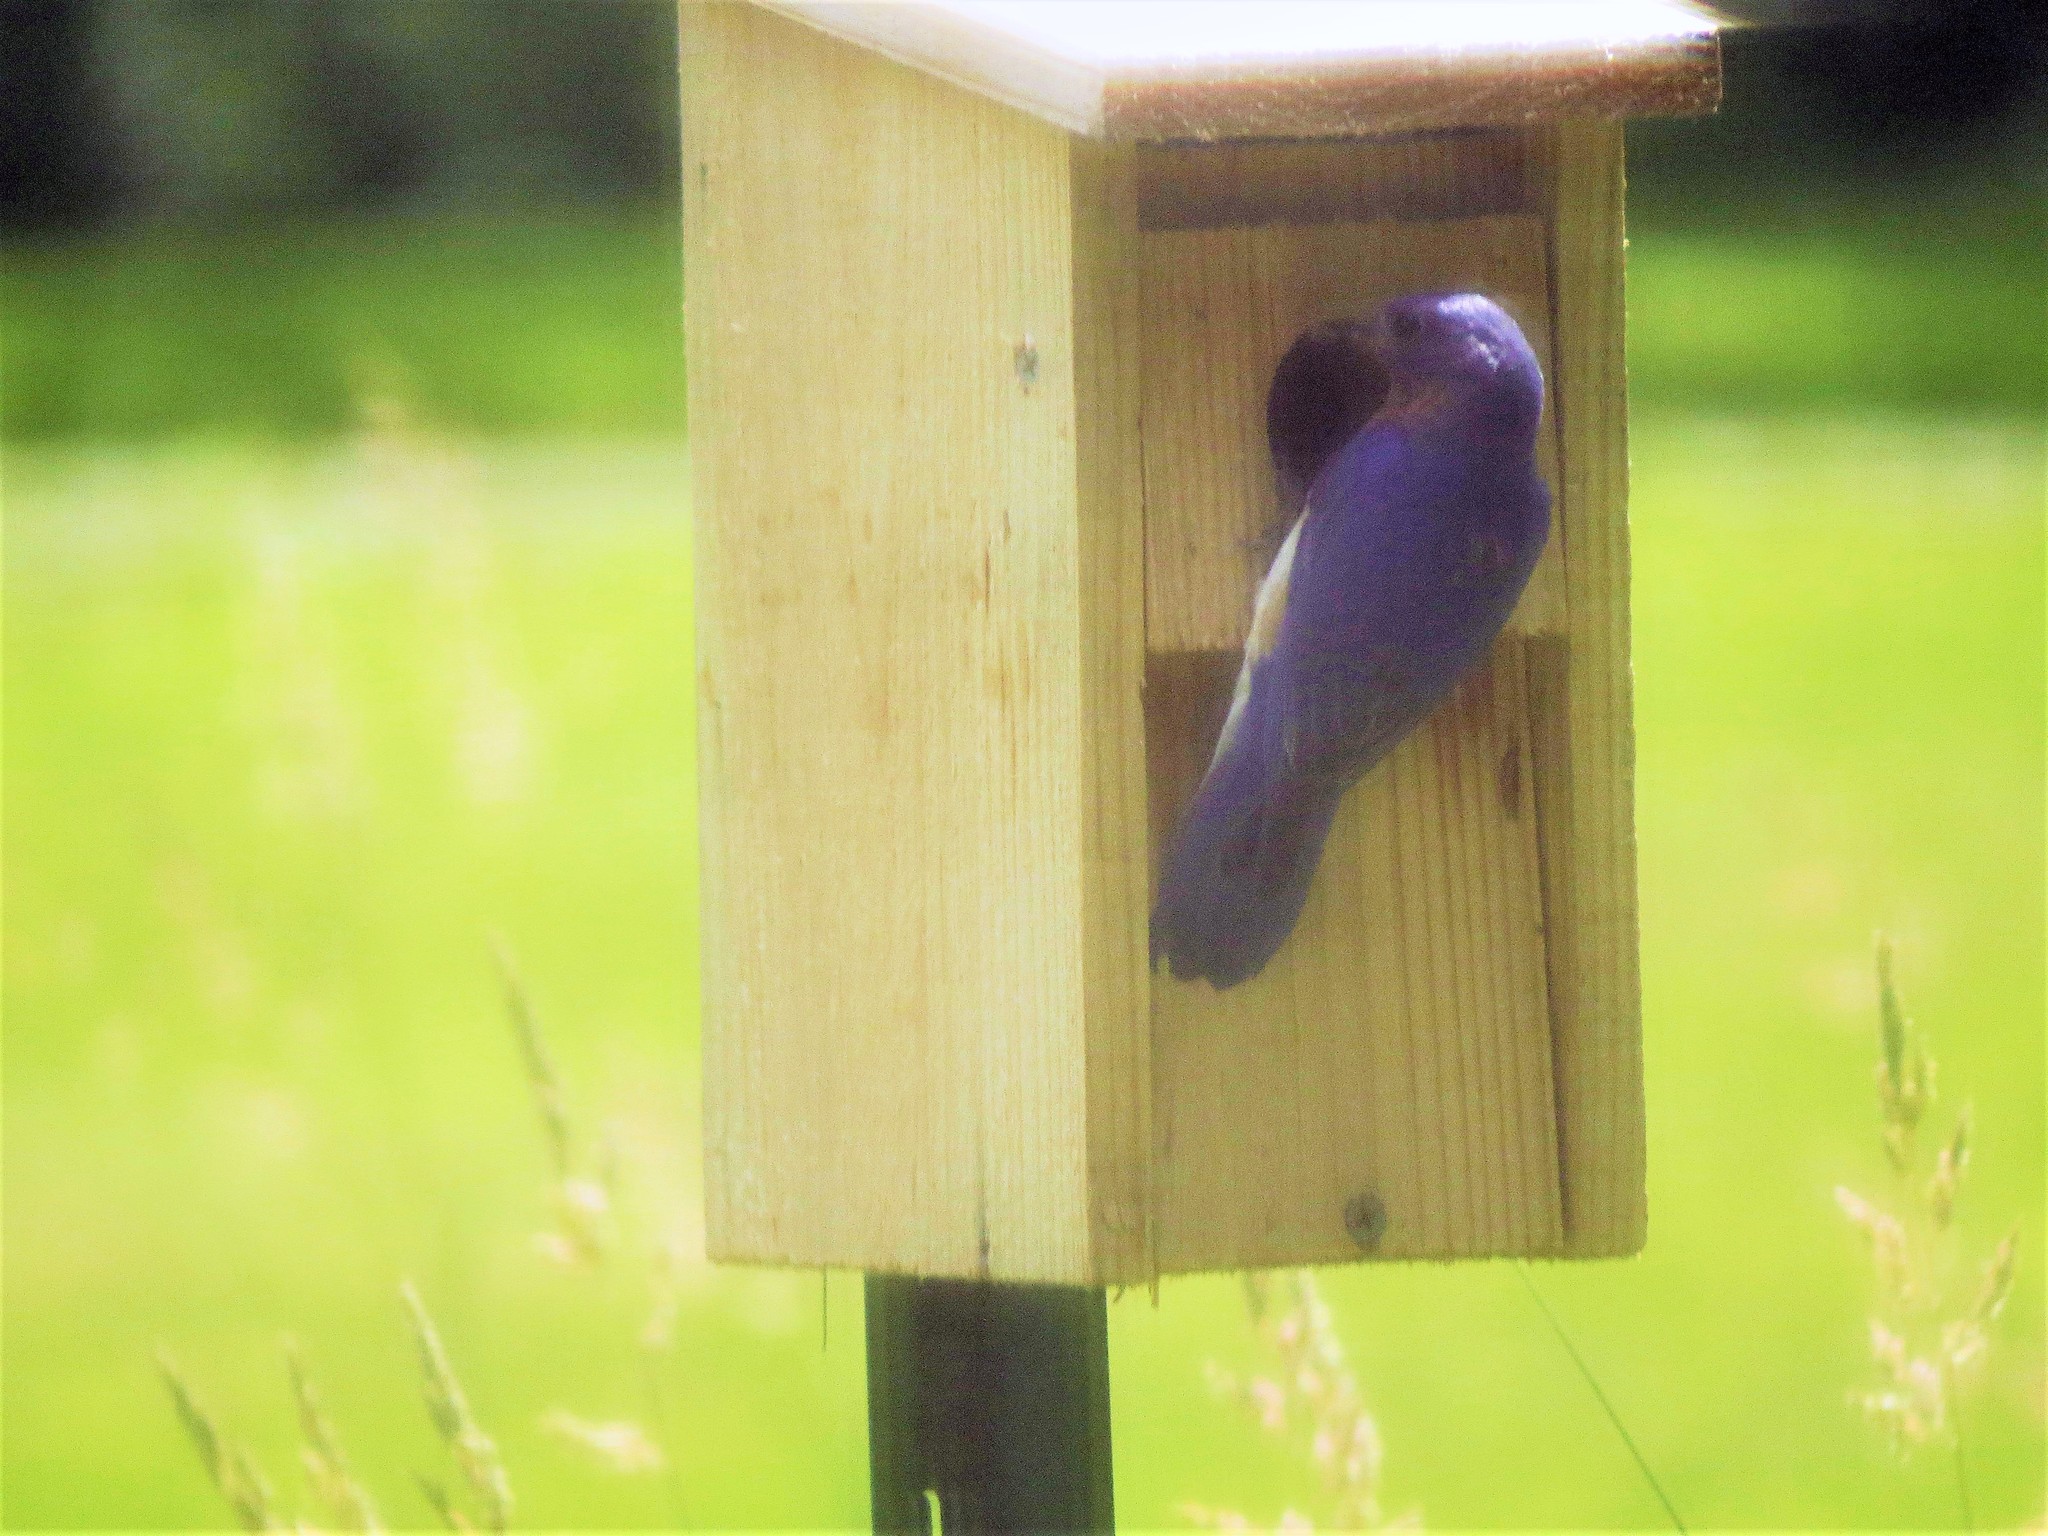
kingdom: Animalia
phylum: Chordata
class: Aves
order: Passeriformes
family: Turdidae
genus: Sialia
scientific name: Sialia sialis
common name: Eastern bluebird
